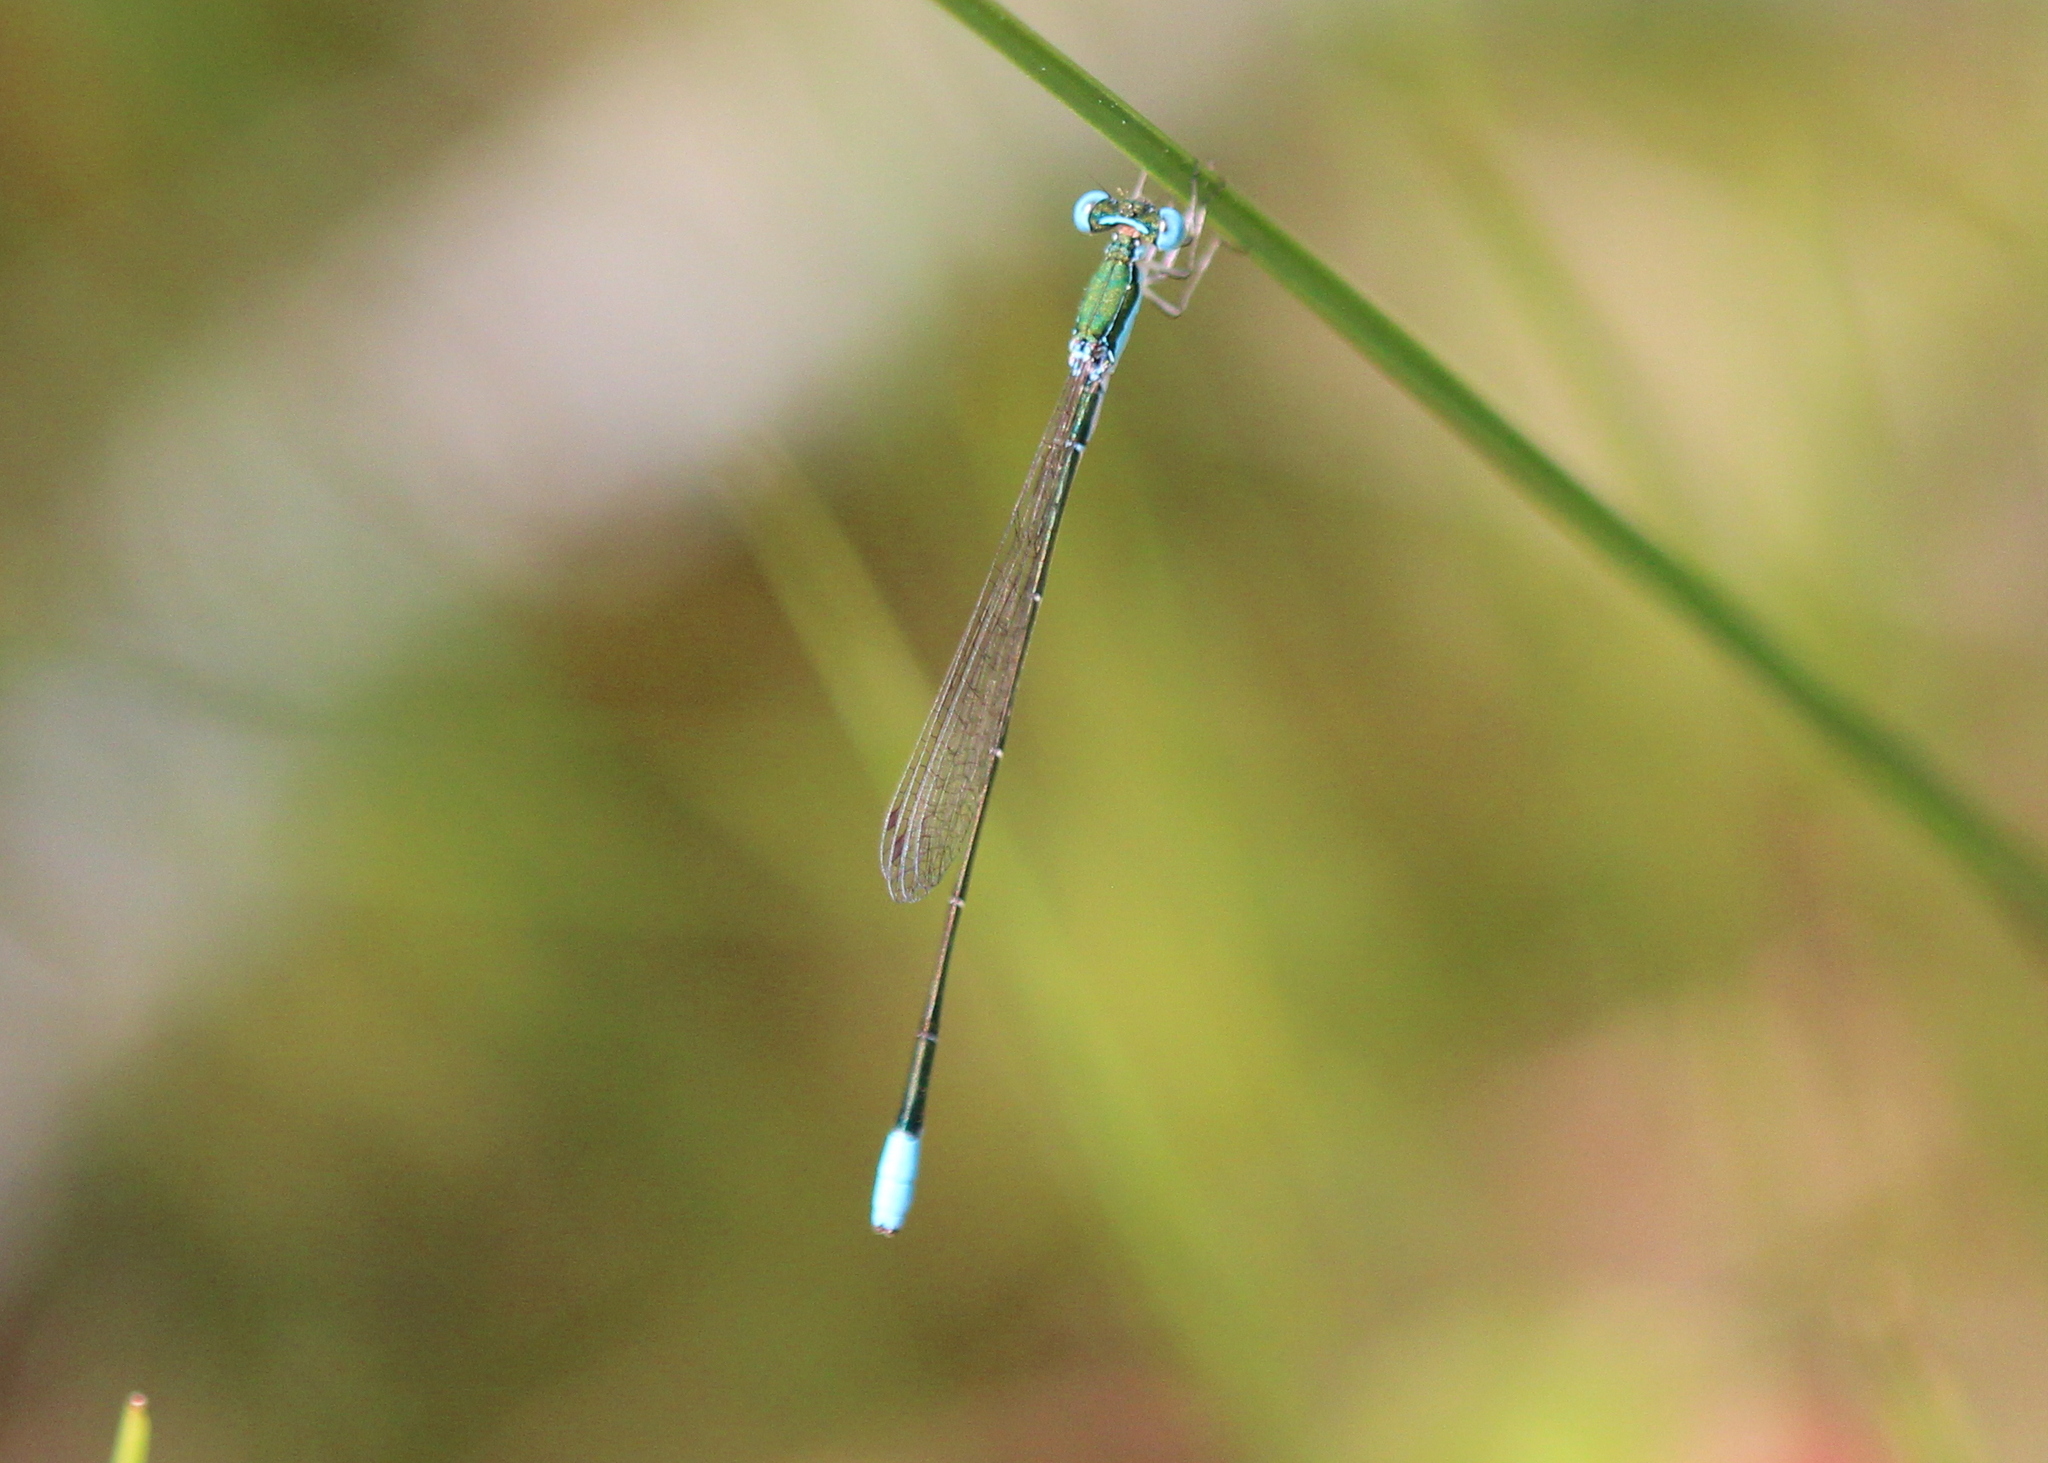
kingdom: Animalia
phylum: Arthropoda
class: Insecta
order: Odonata
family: Coenagrionidae
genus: Nehalennia
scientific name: Nehalennia gracilis
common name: Sphagnum sprite
